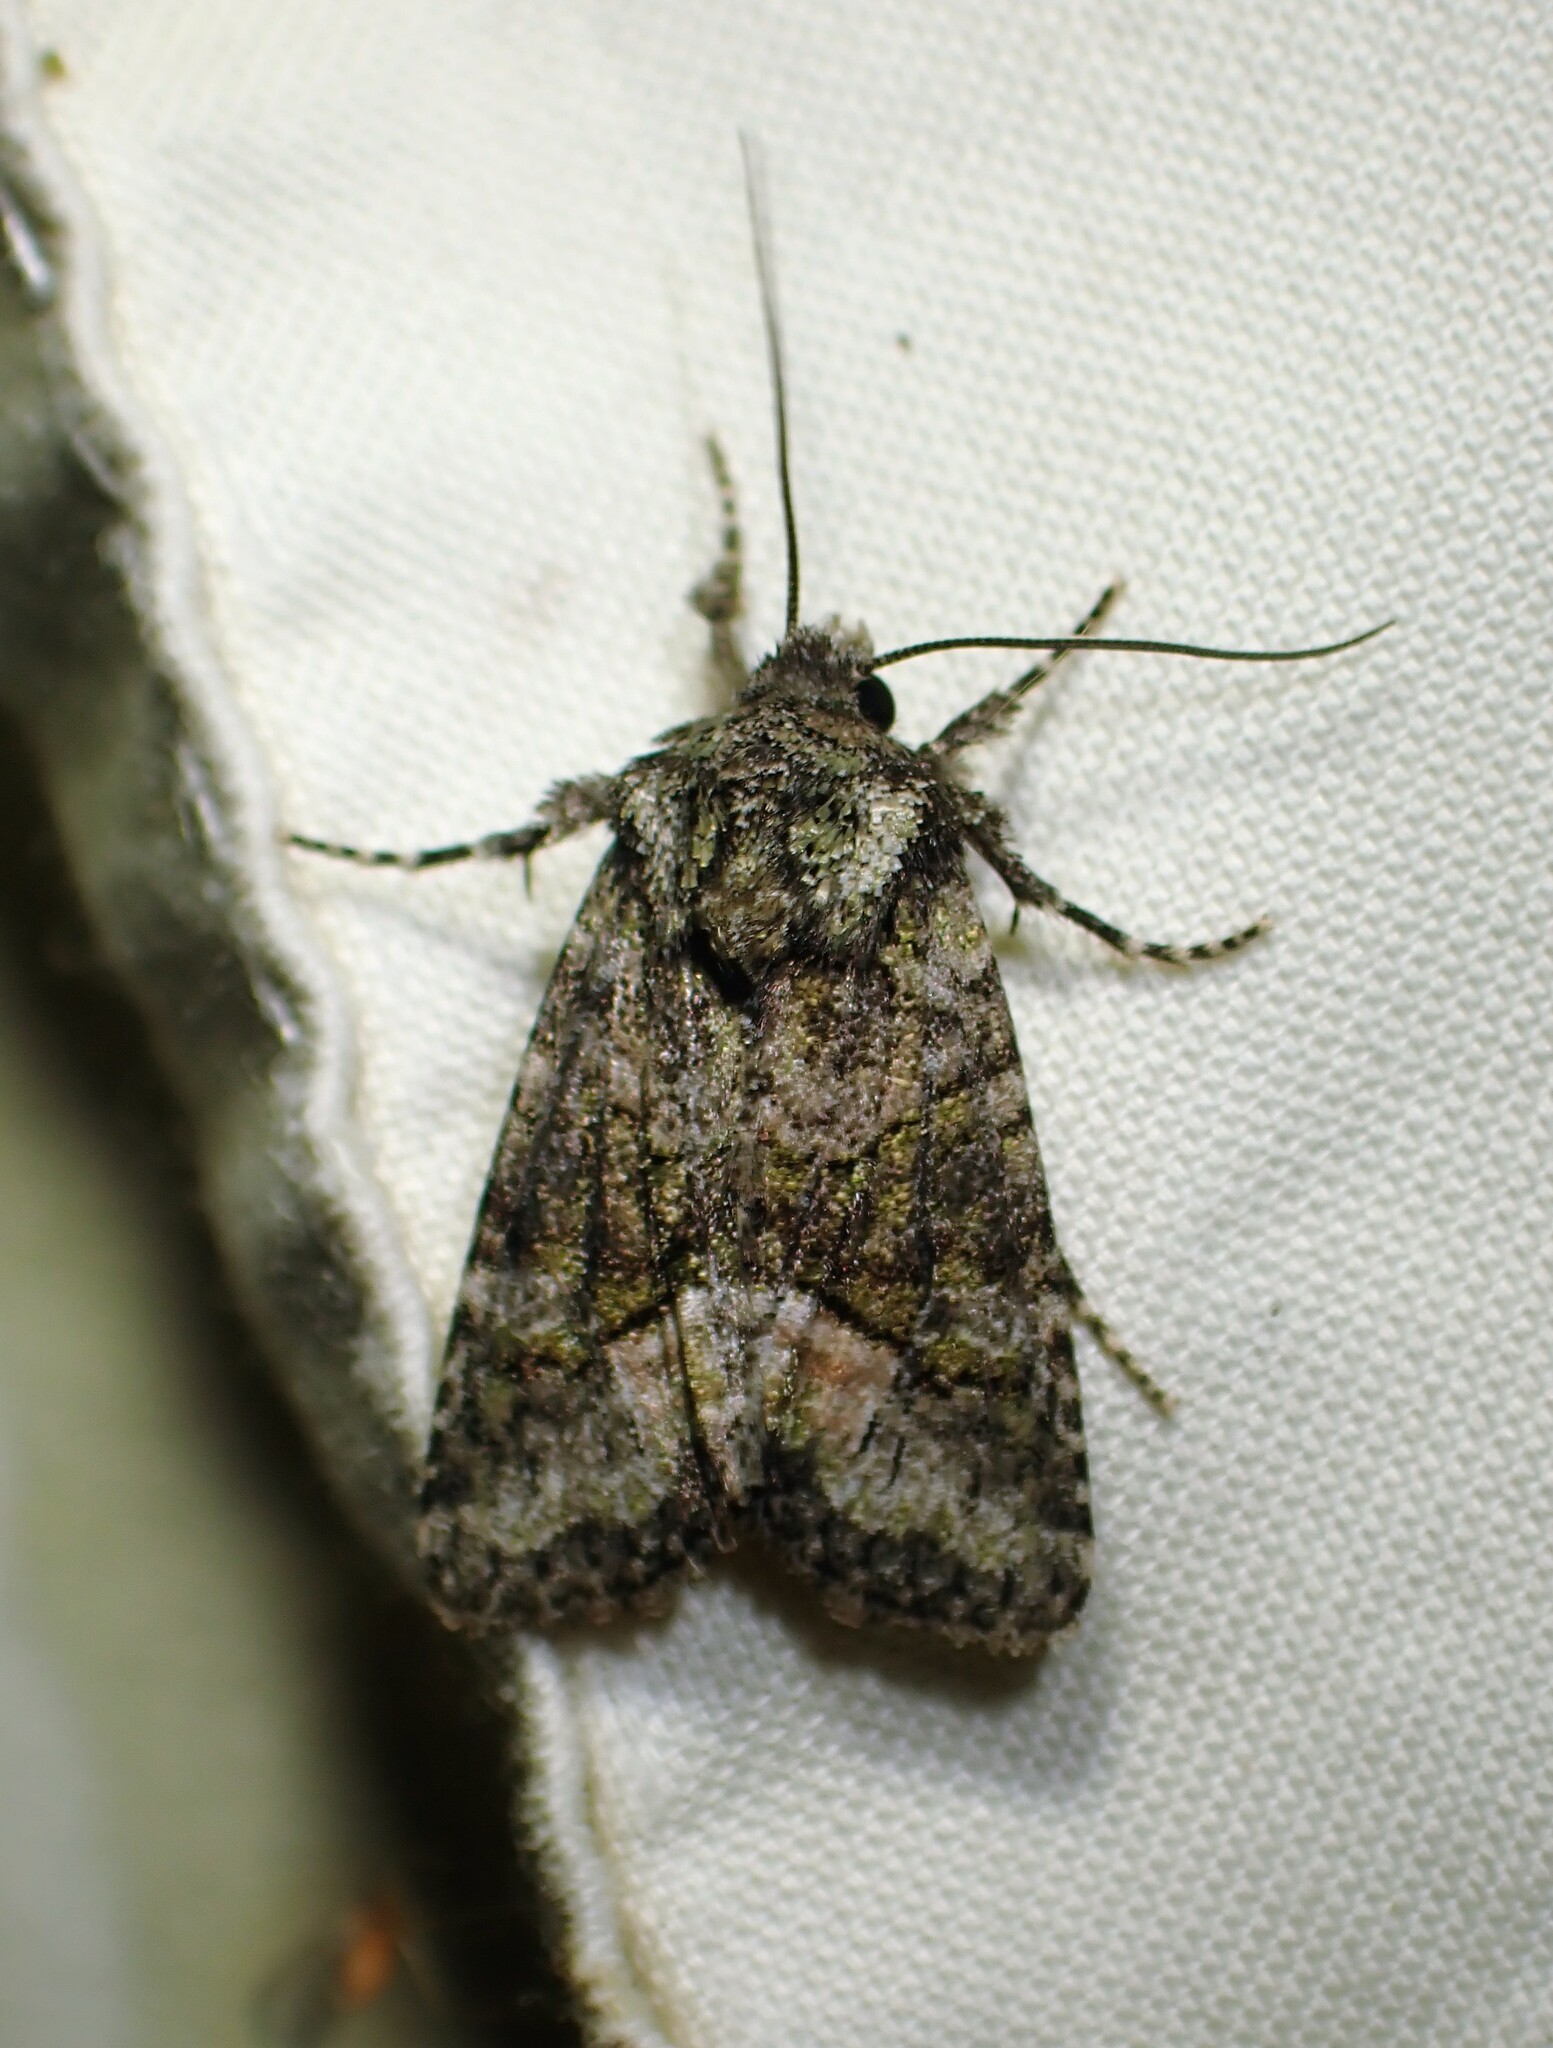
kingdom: Animalia
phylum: Arthropoda
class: Insecta
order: Lepidoptera
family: Noctuidae
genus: Lacinipolia
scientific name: Lacinipolia olivacea
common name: Olive arches moth
